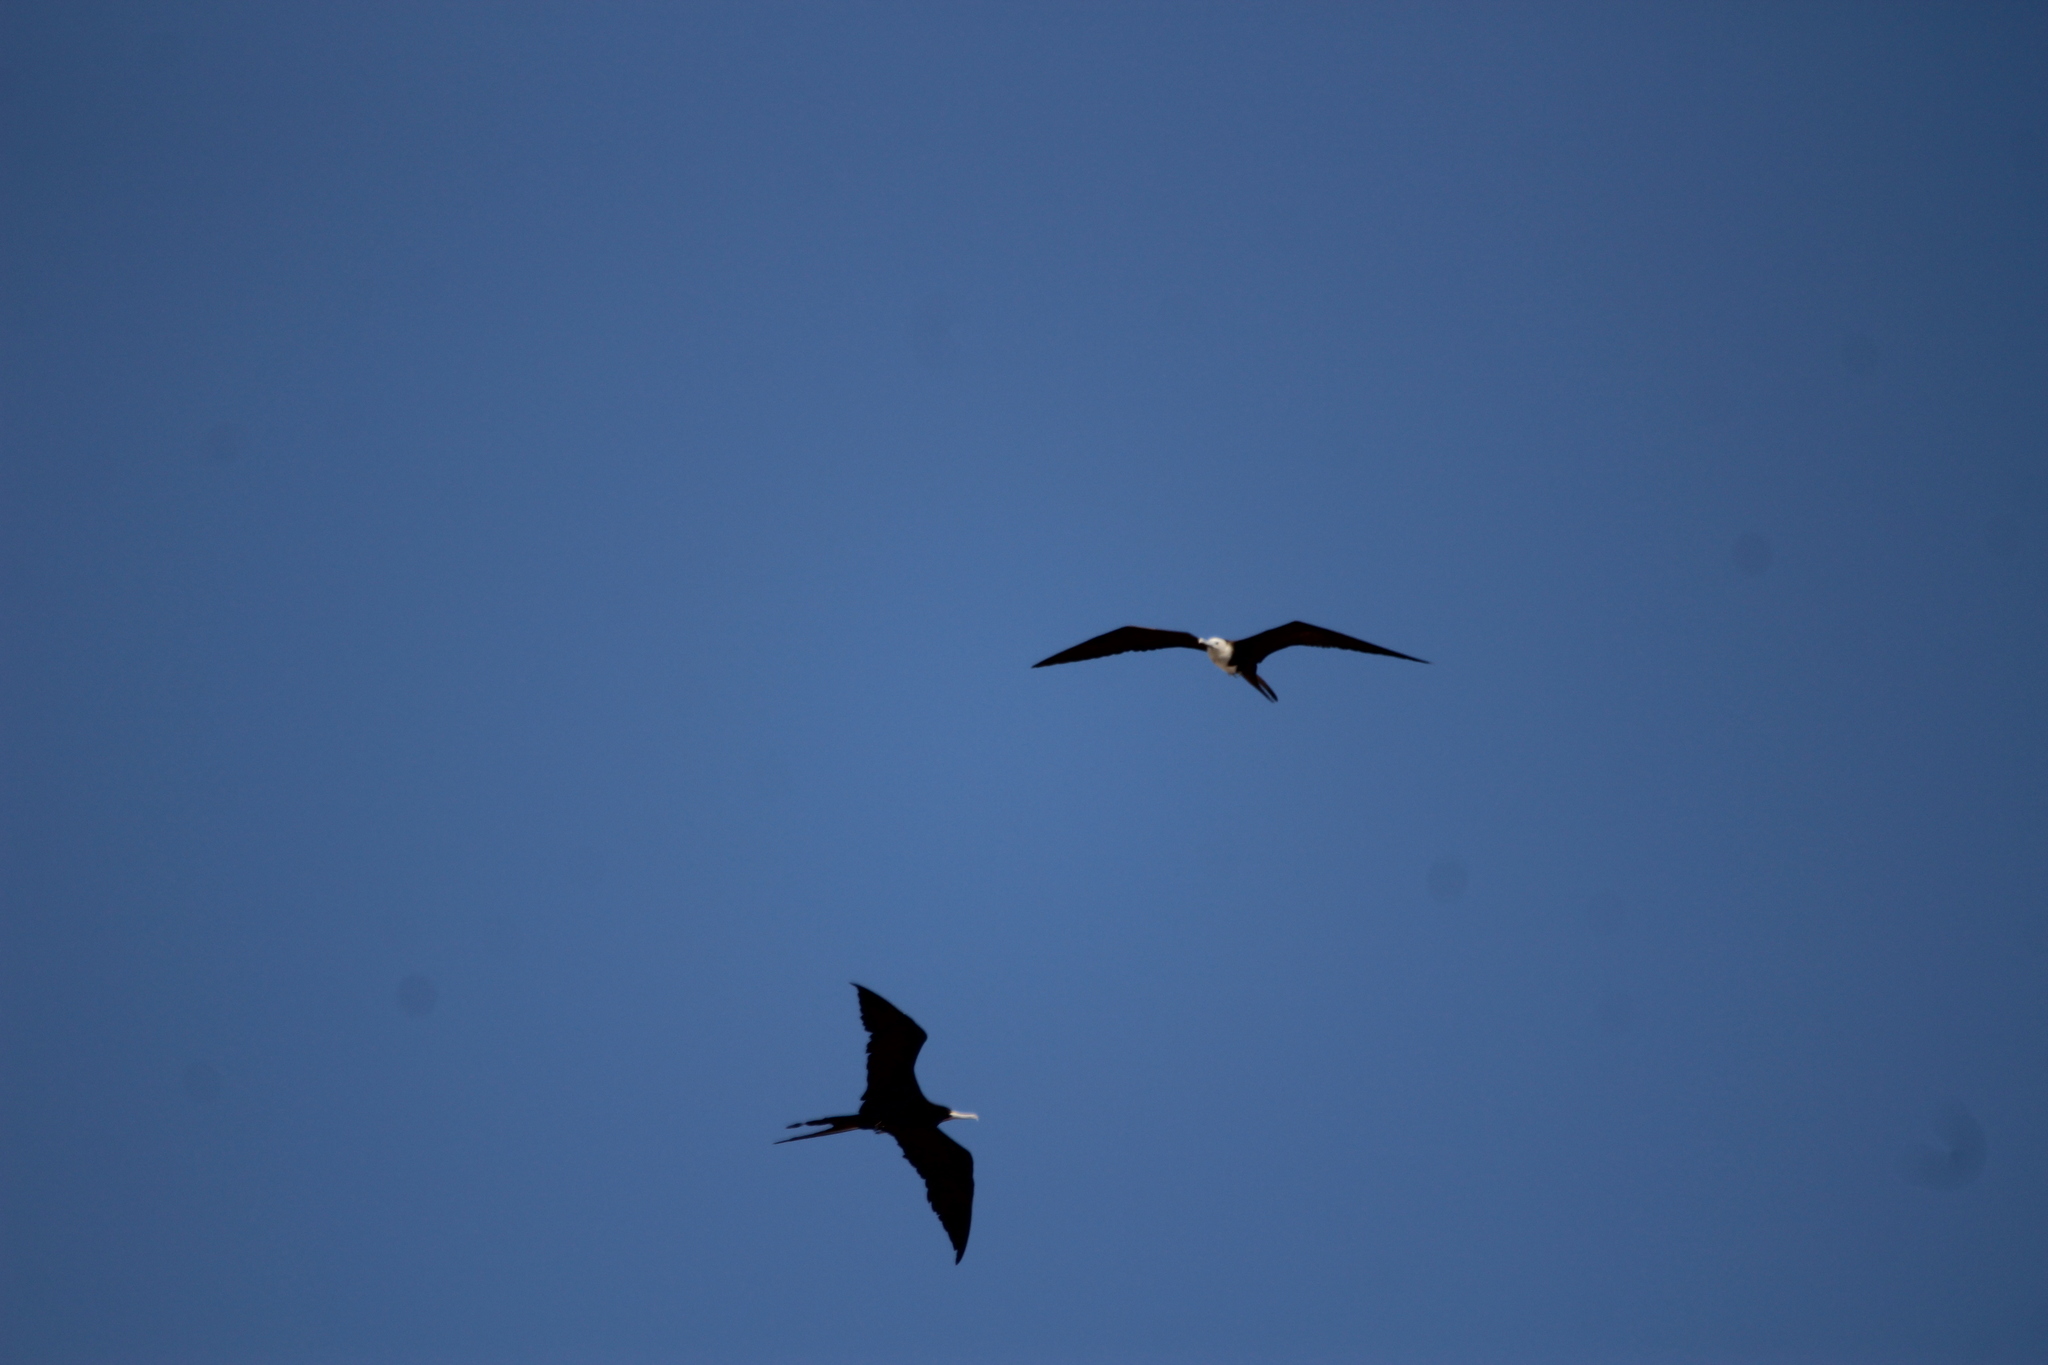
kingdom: Animalia
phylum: Chordata
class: Aves
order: Suliformes
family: Fregatidae
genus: Fregata
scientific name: Fregata magnificens
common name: Magnificent frigatebird
